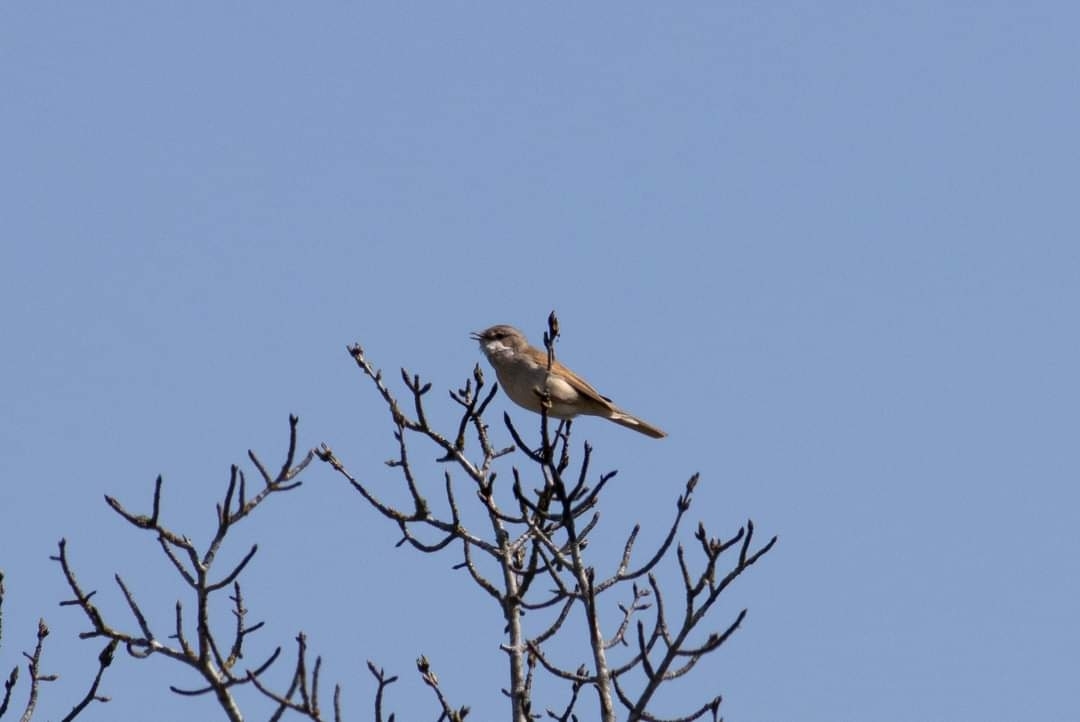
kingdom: Animalia
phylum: Chordata
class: Aves
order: Passeriformes
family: Sylviidae
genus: Sylvia
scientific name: Sylvia communis
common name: Common whitethroat
